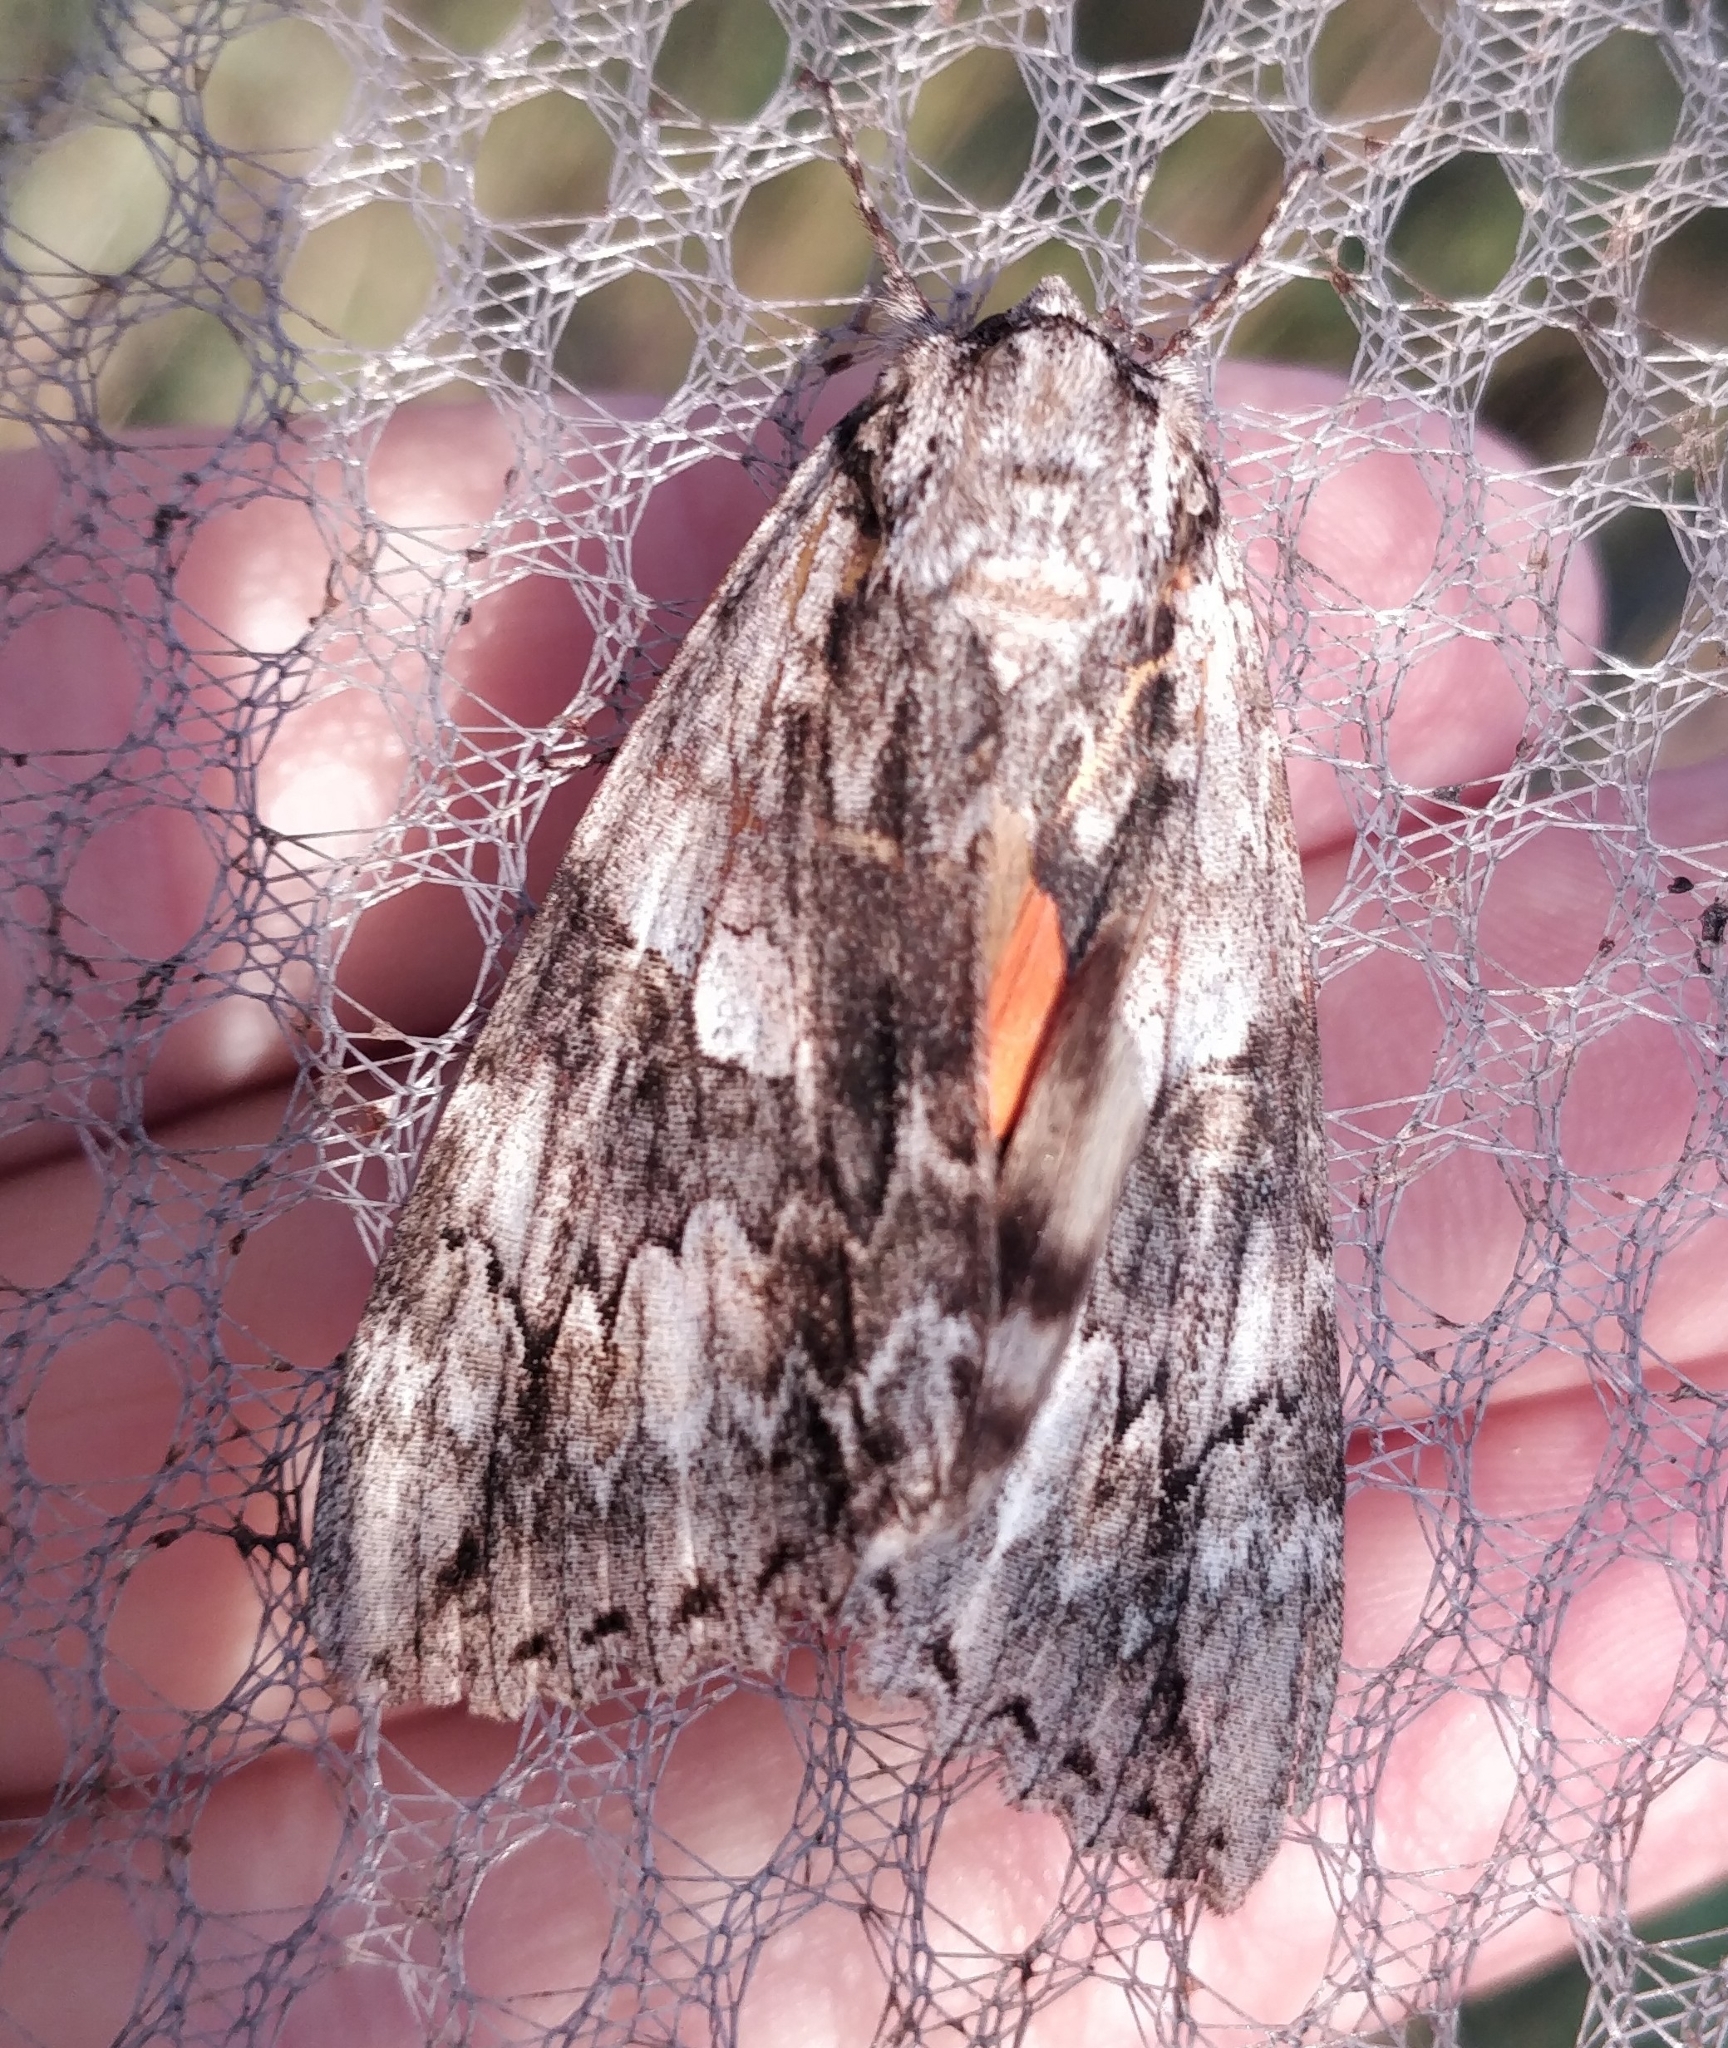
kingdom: Animalia
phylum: Arthropoda
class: Insecta
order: Lepidoptera
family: Erebidae
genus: Catocala
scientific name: Catocala parta
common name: Mother underwing
